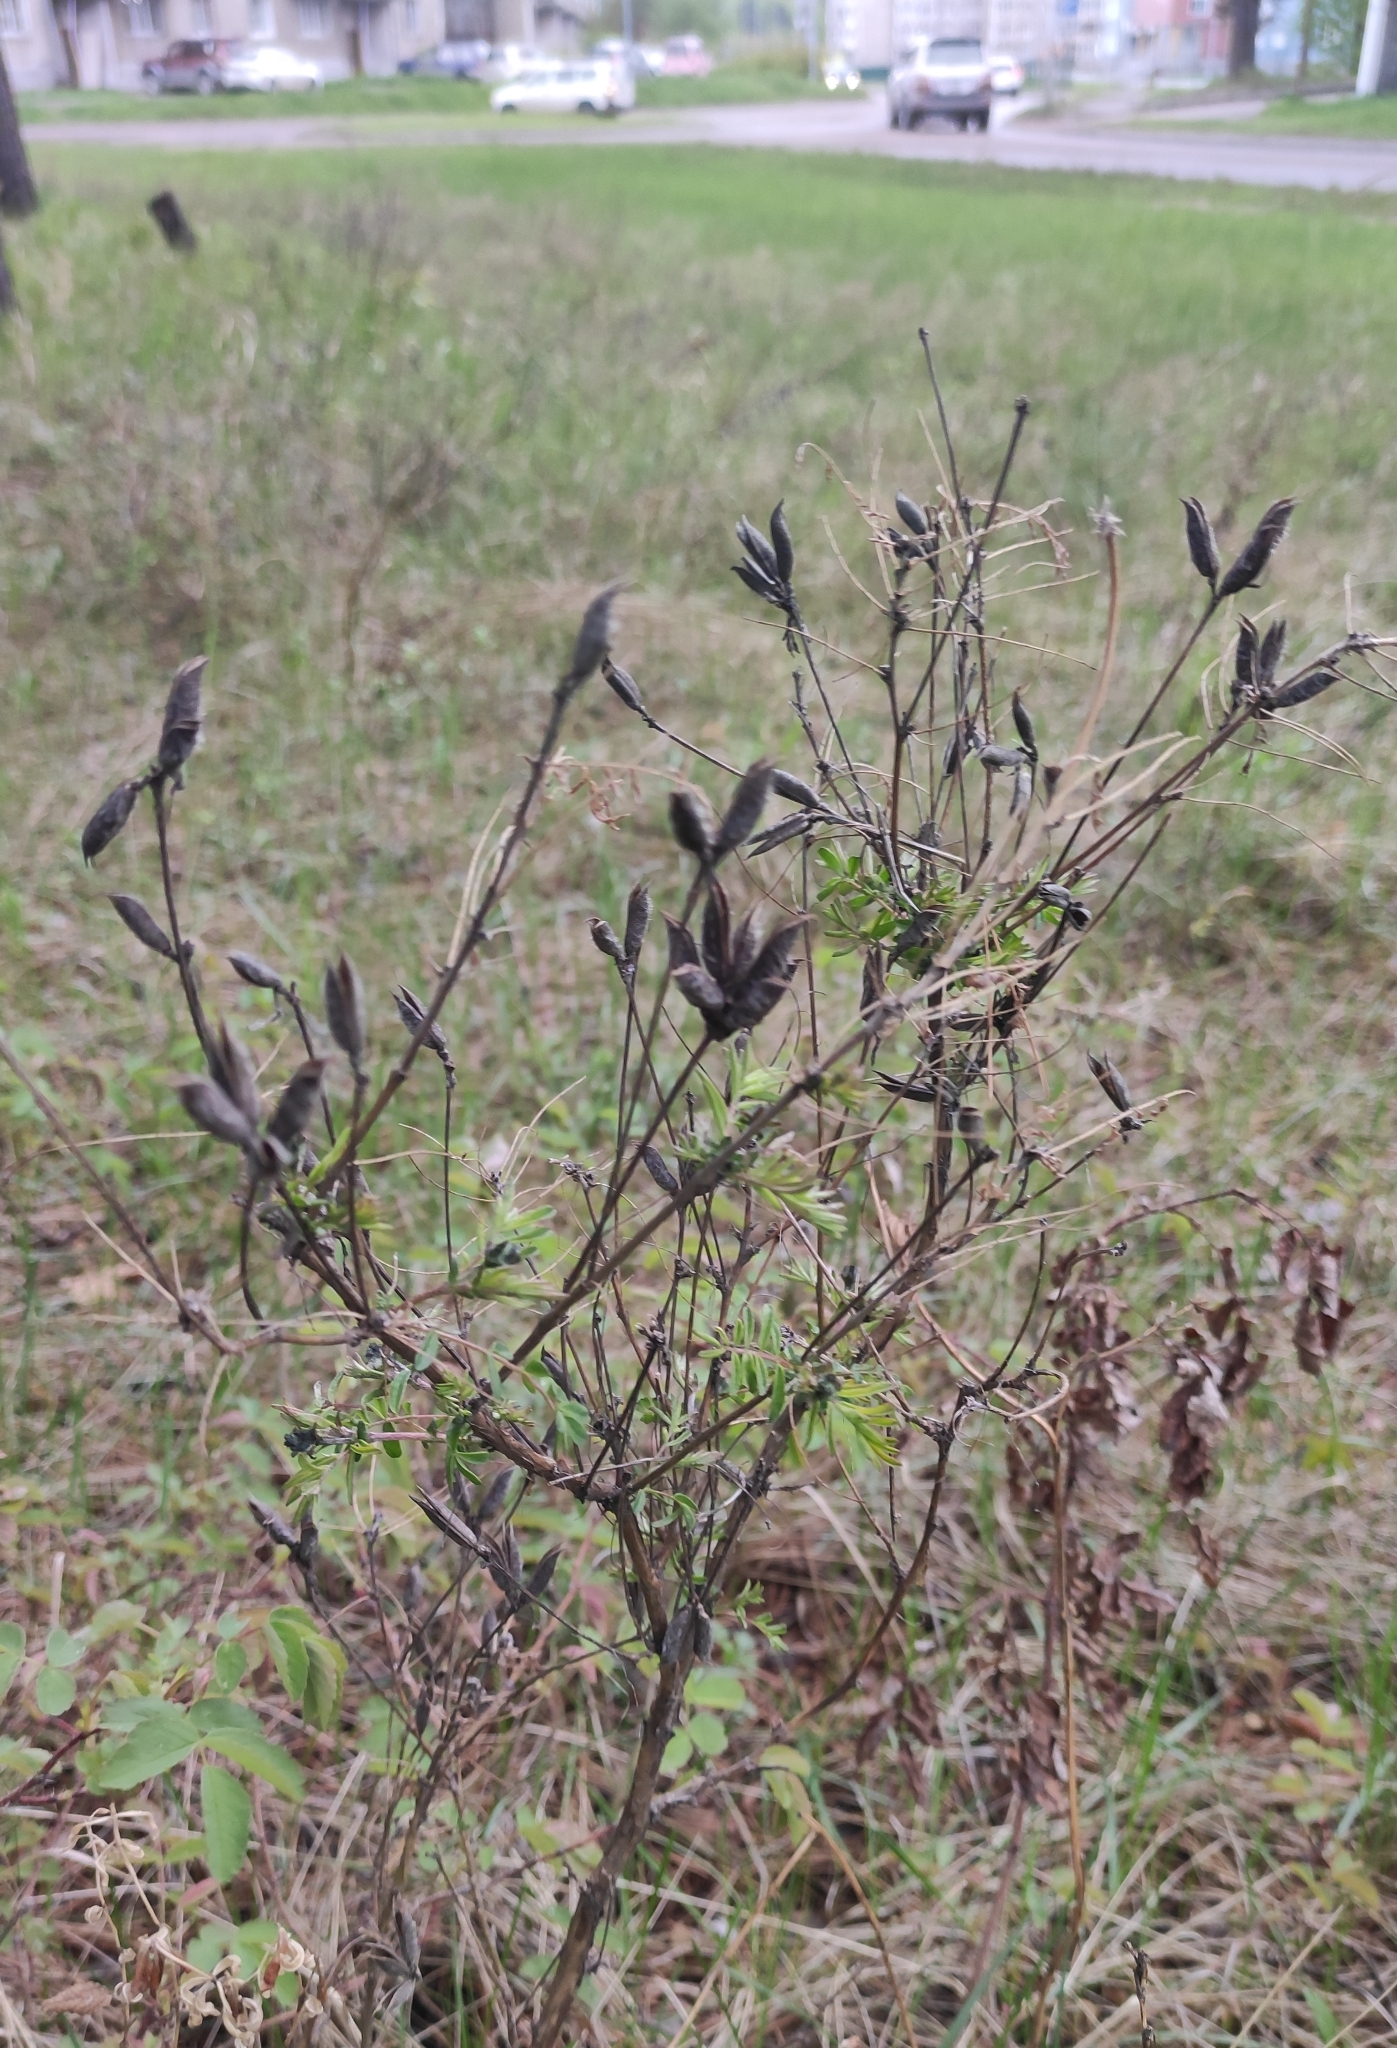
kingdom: Plantae
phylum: Tracheophyta
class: Magnoliopsida
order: Fabales
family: Fabaceae
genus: Astragalus
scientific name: Astragalus syriacus
